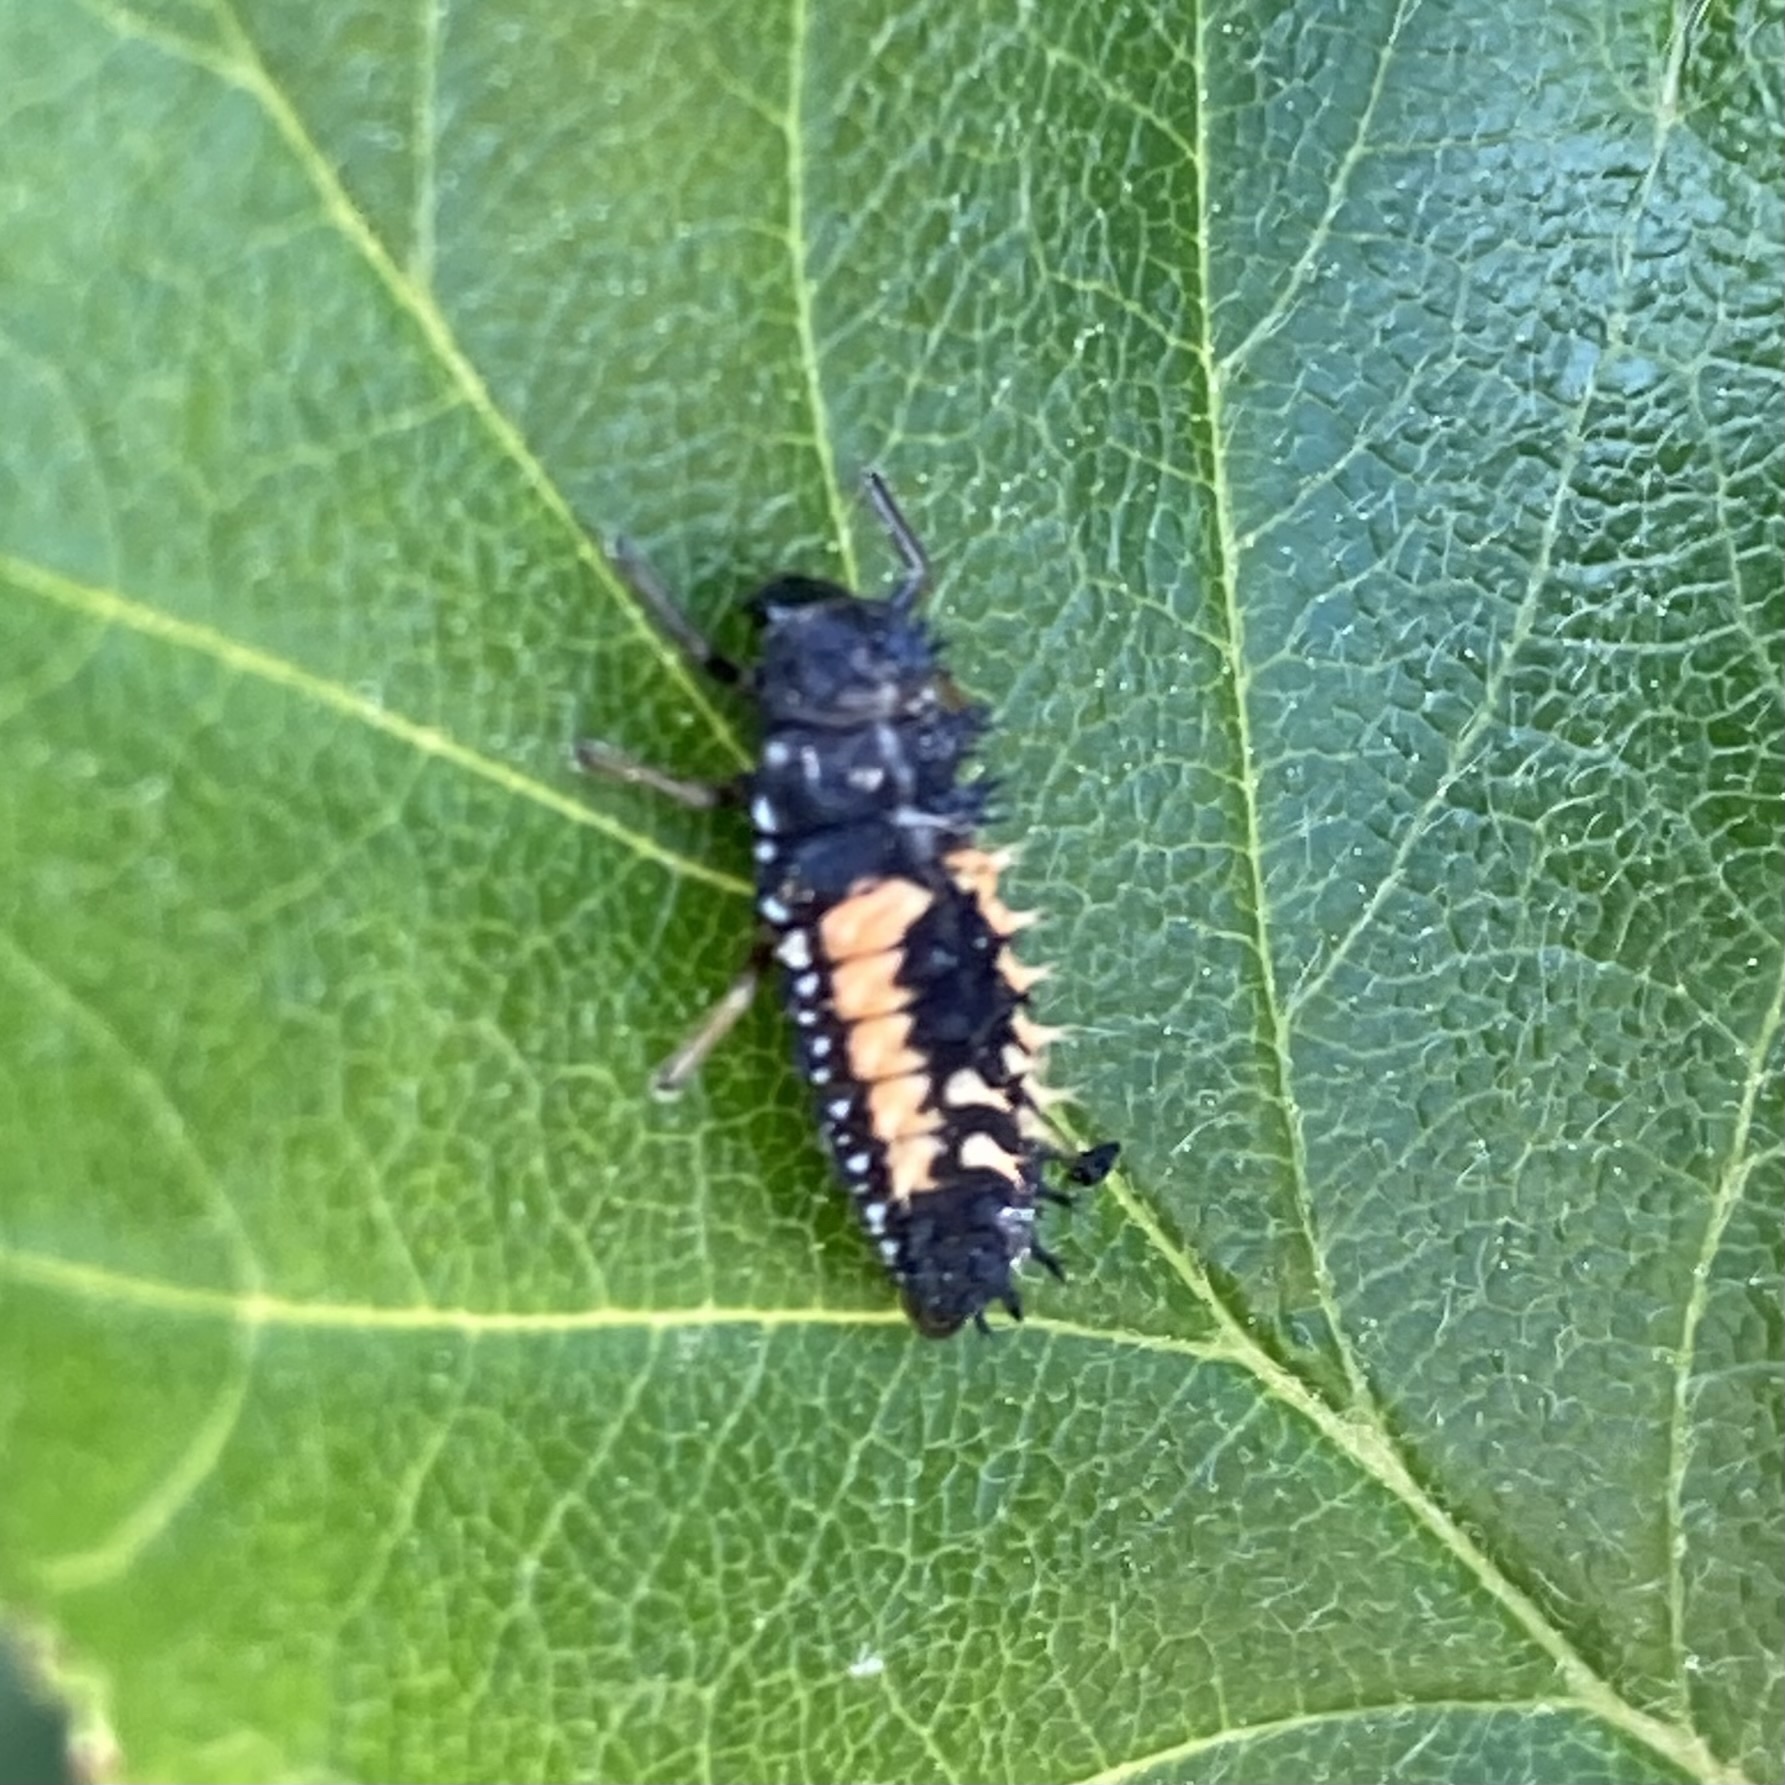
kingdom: Animalia
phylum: Arthropoda
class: Insecta
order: Coleoptera
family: Coccinellidae
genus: Harmonia
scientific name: Harmonia axyridis
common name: Harlequin ladybird
